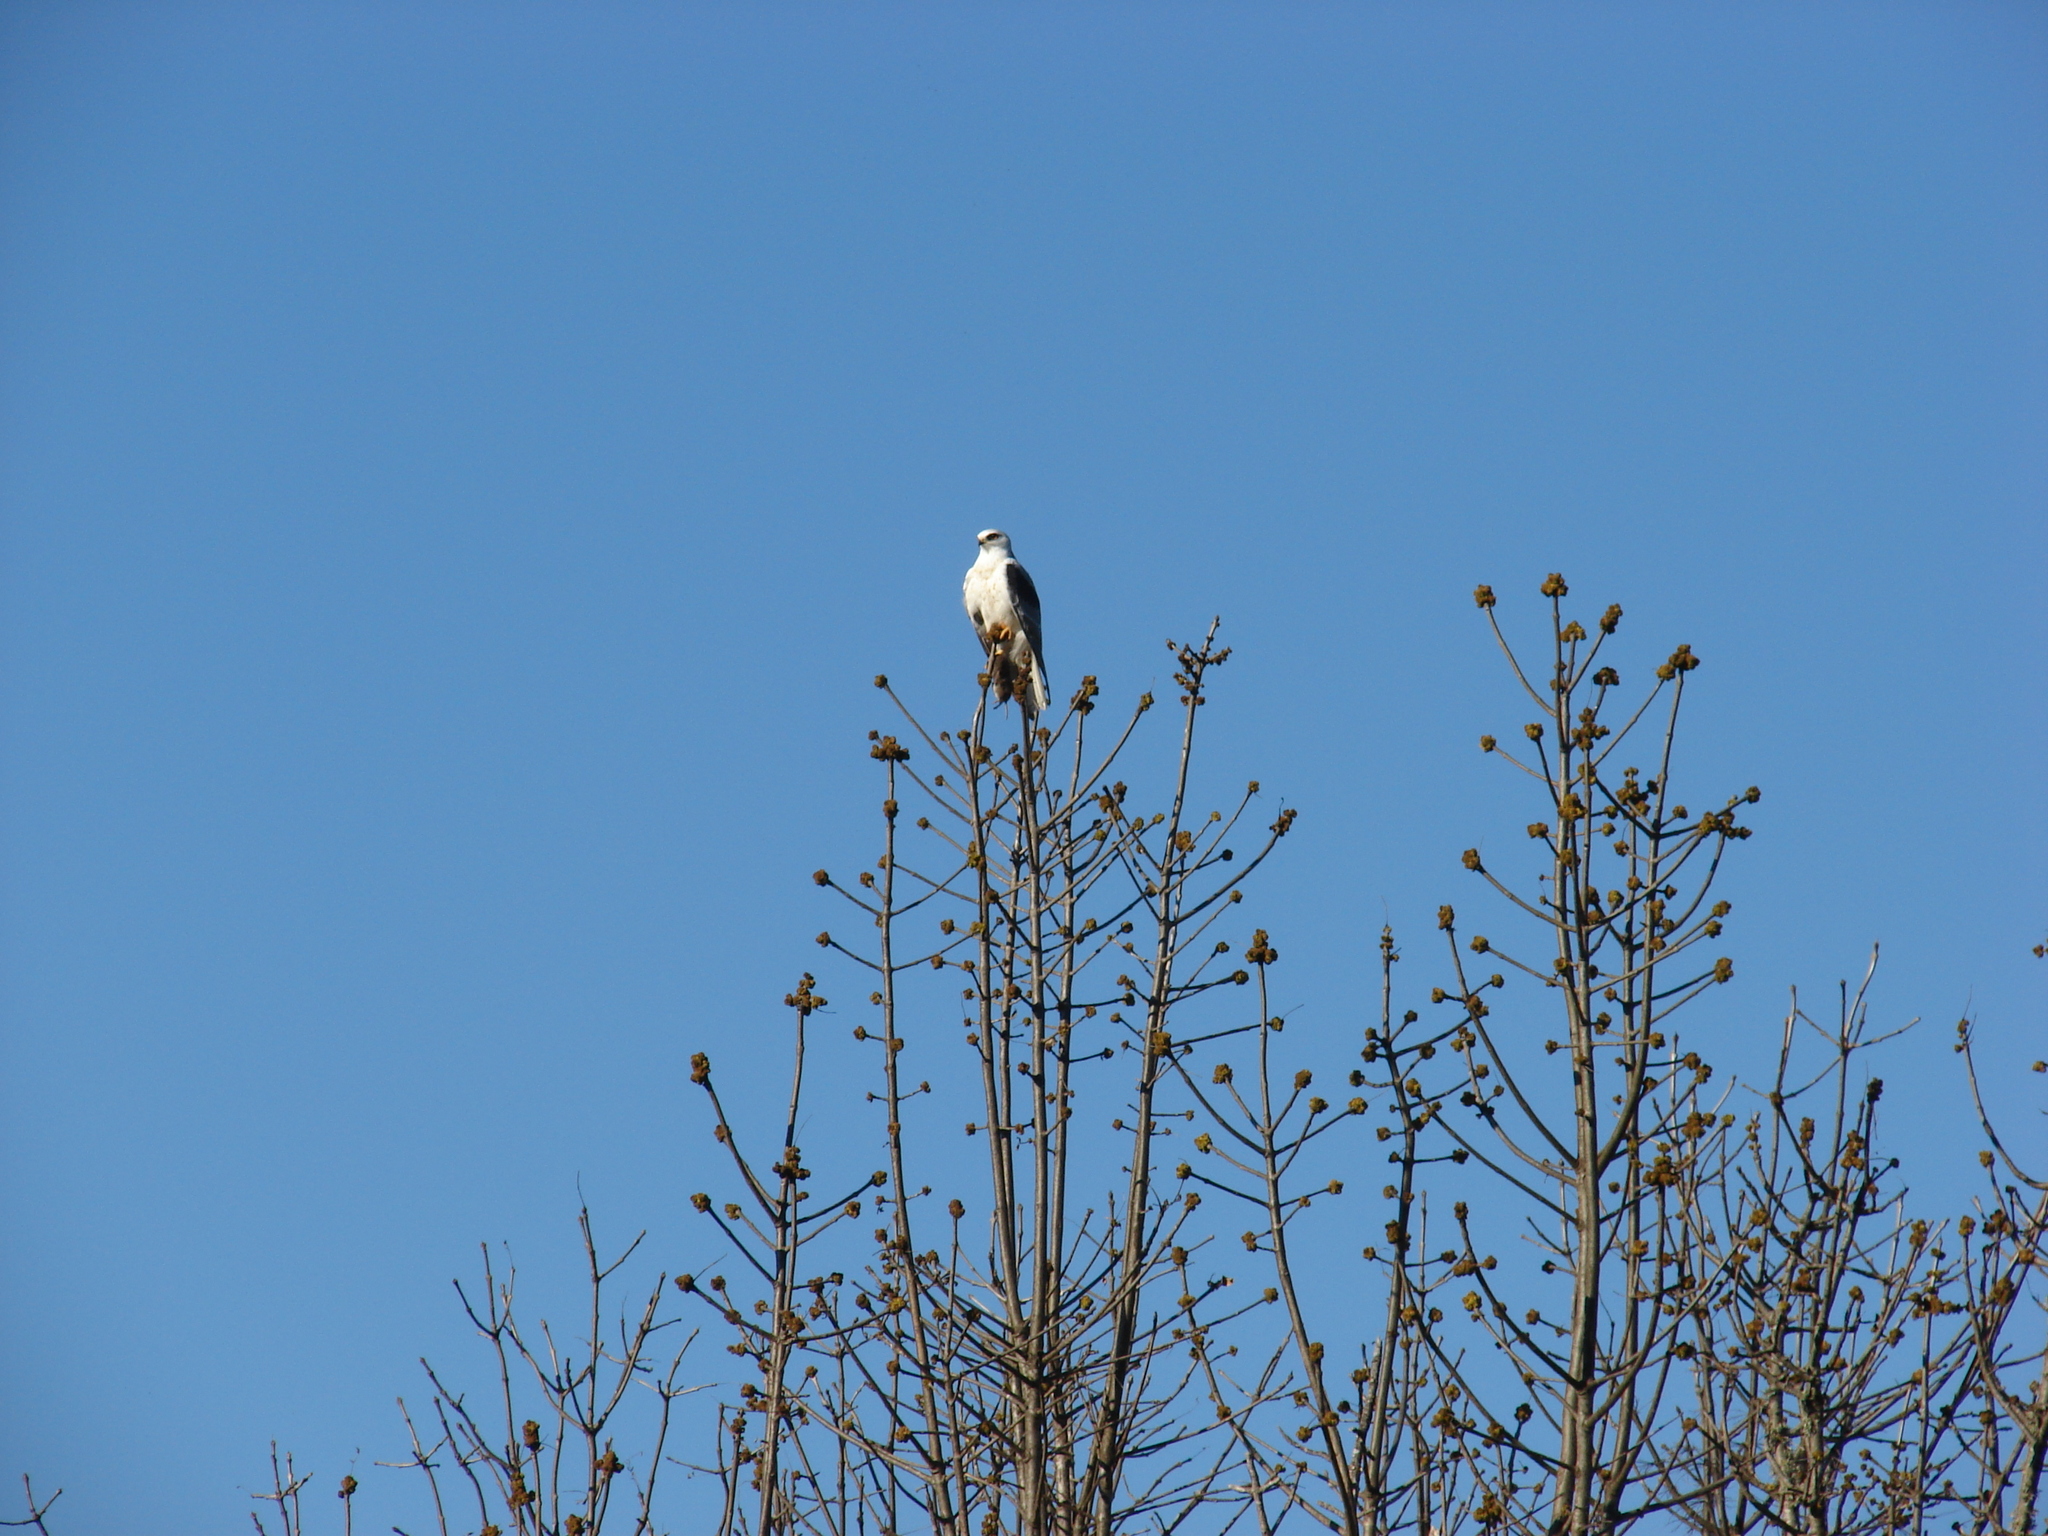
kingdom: Animalia
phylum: Chordata
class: Aves
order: Accipitriformes
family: Accipitridae
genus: Elanus
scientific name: Elanus leucurus
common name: White-tailed kite
